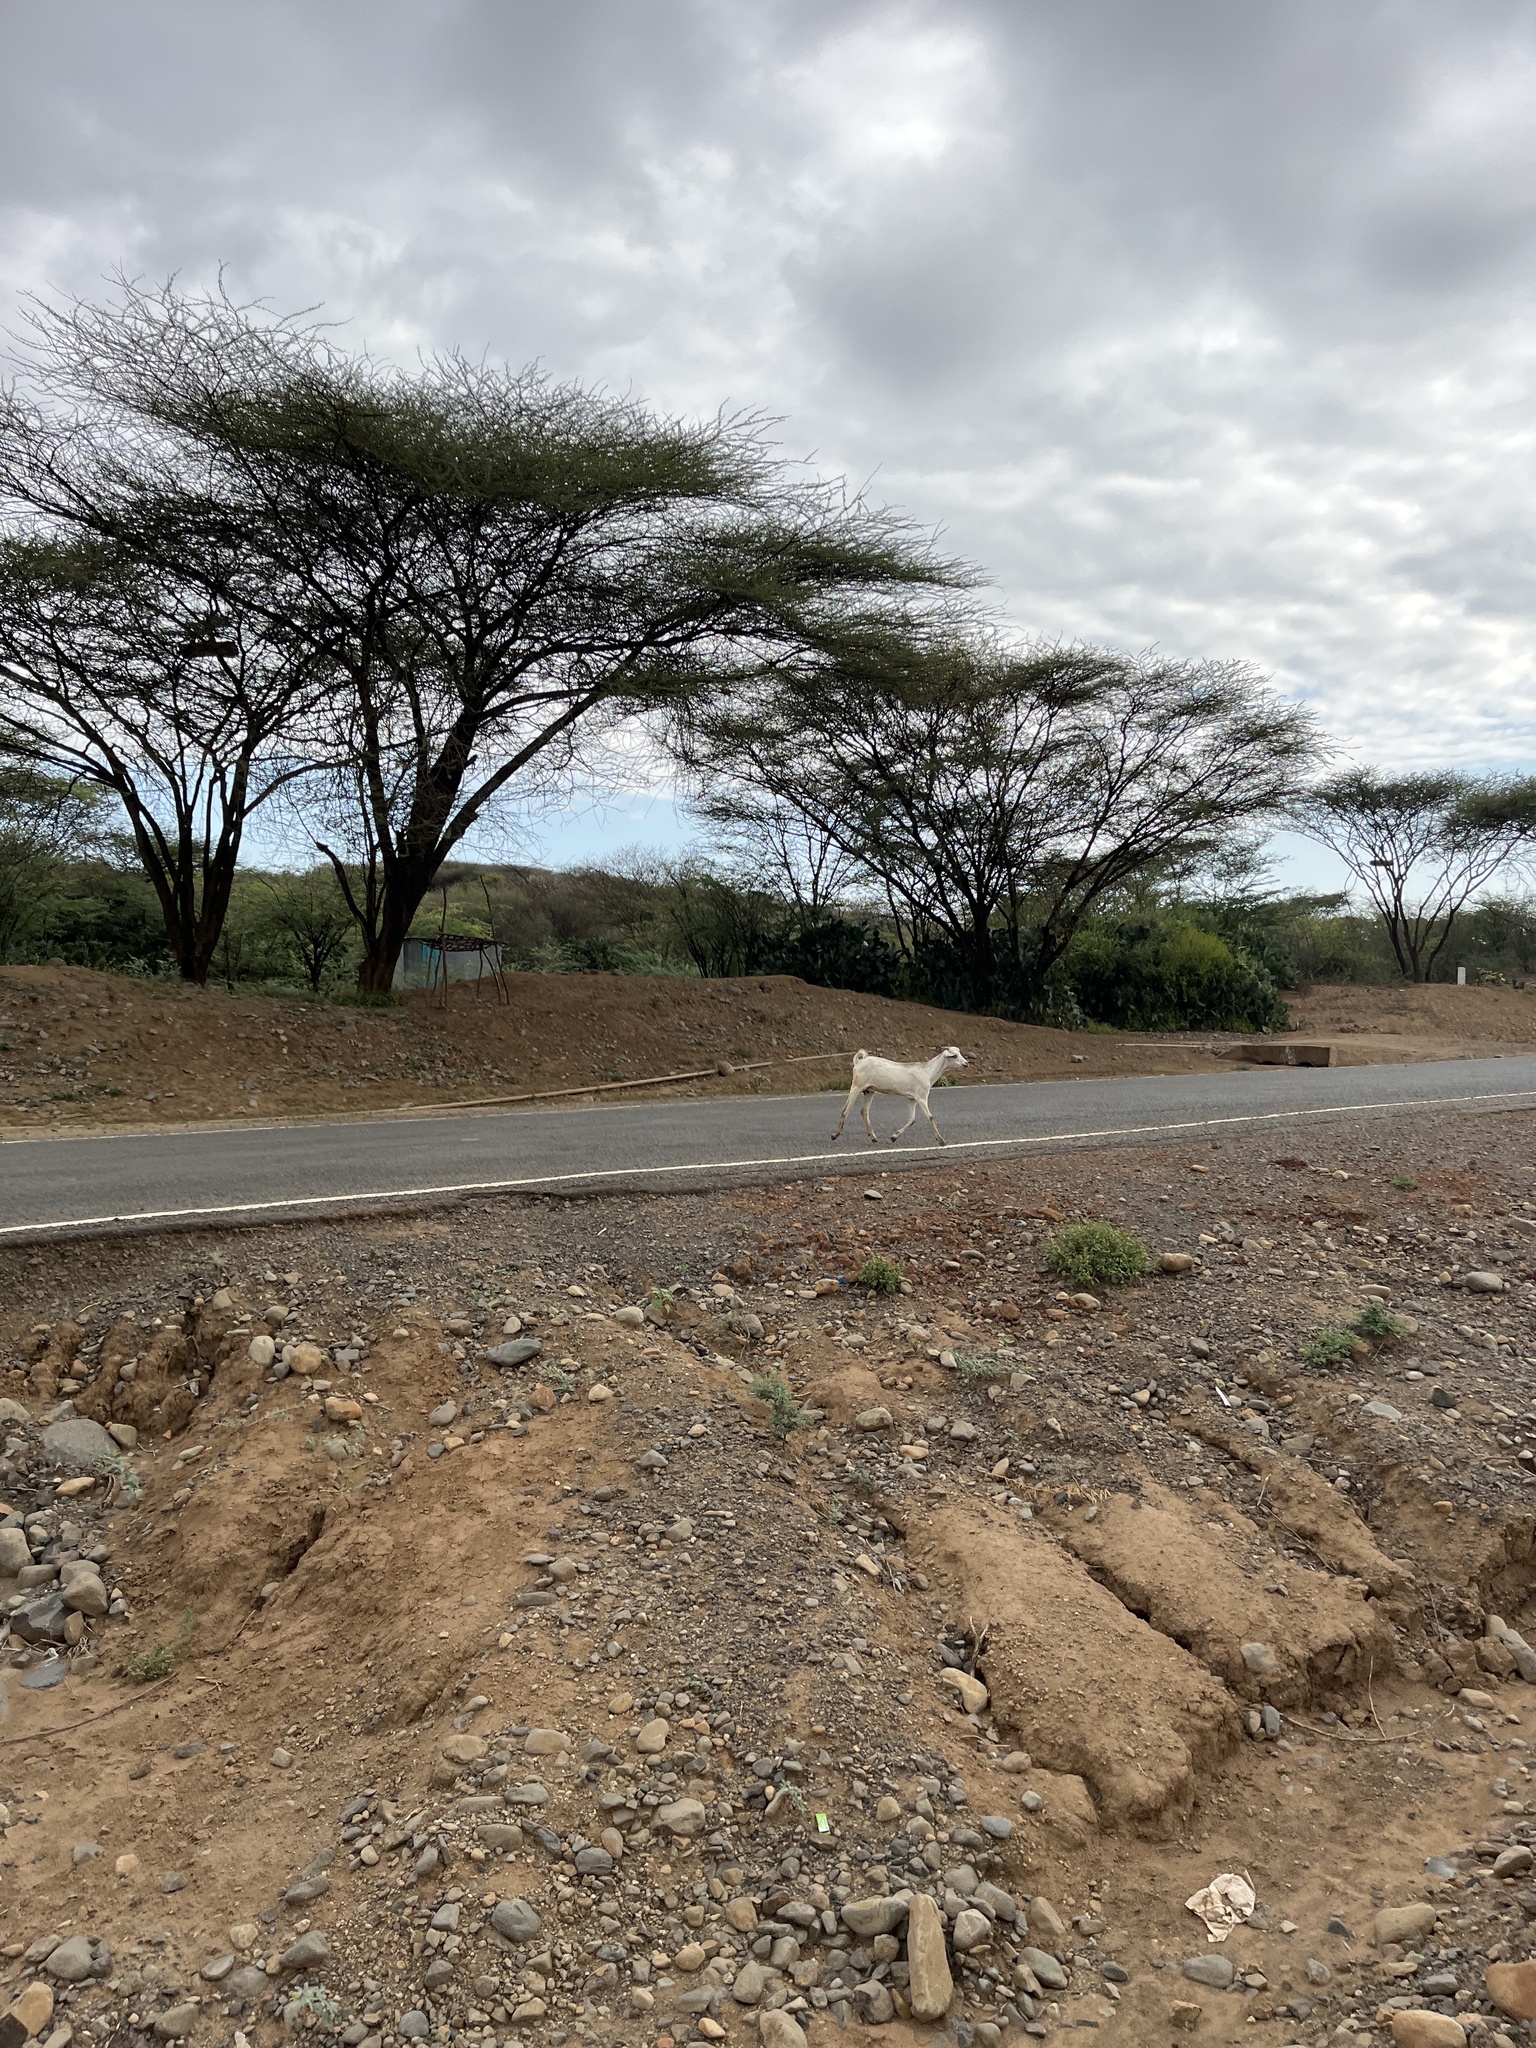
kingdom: Animalia
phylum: Chordata
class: Mammalia
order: Artiodactyla
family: Bovidae
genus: Capra
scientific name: Capra hircus
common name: Domestic goat
